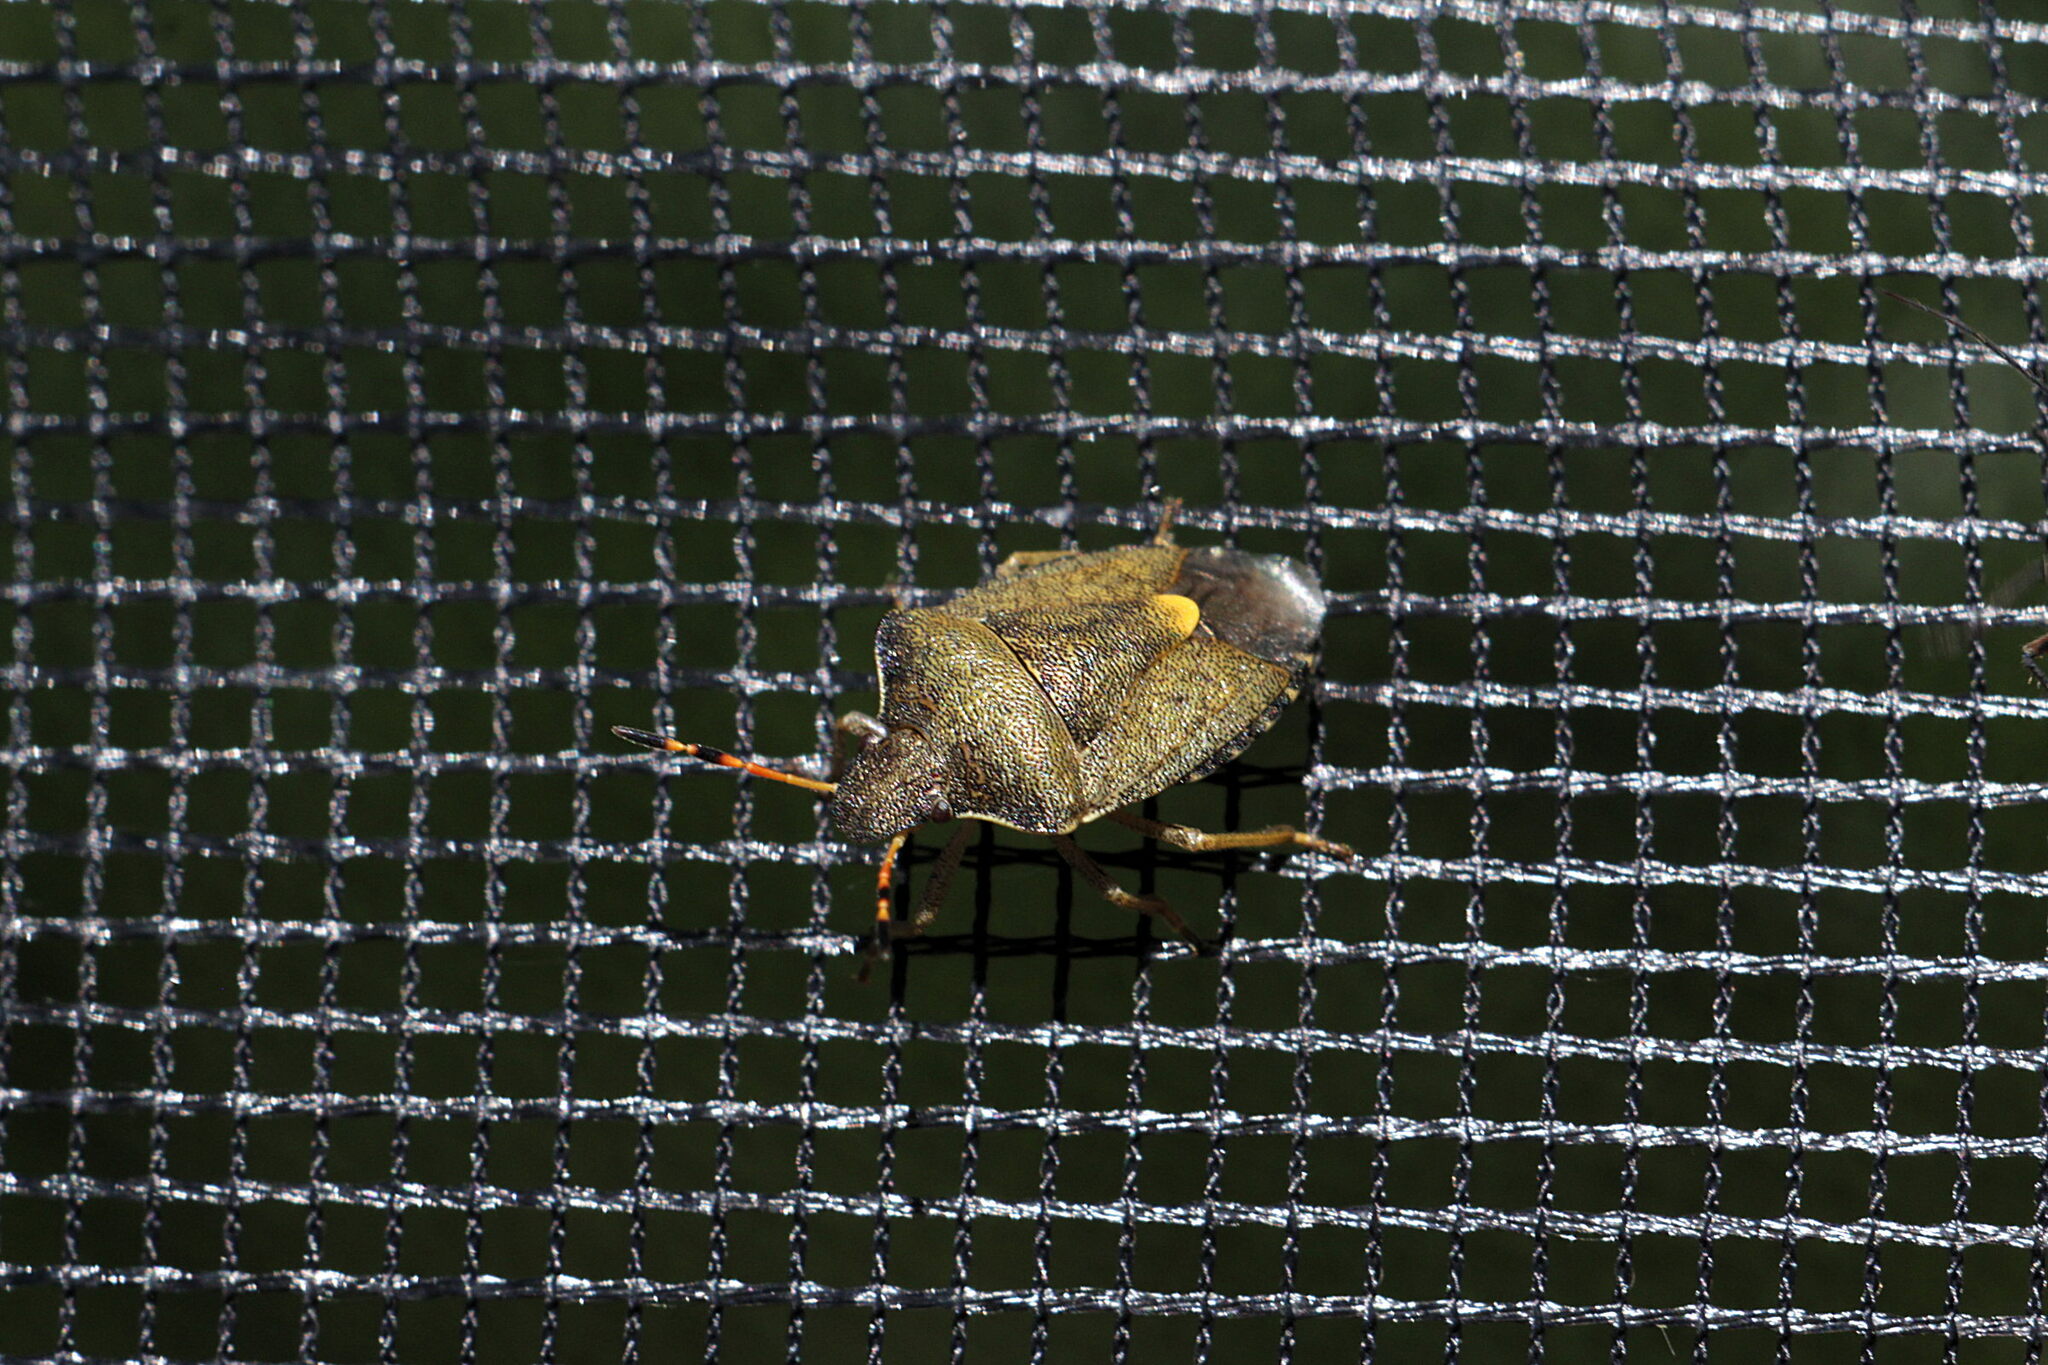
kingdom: Animalia
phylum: Arthropoda
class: Insecta
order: Hemiptera
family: Pentatomidae
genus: Holcostethus
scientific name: Holcostethus strictus
